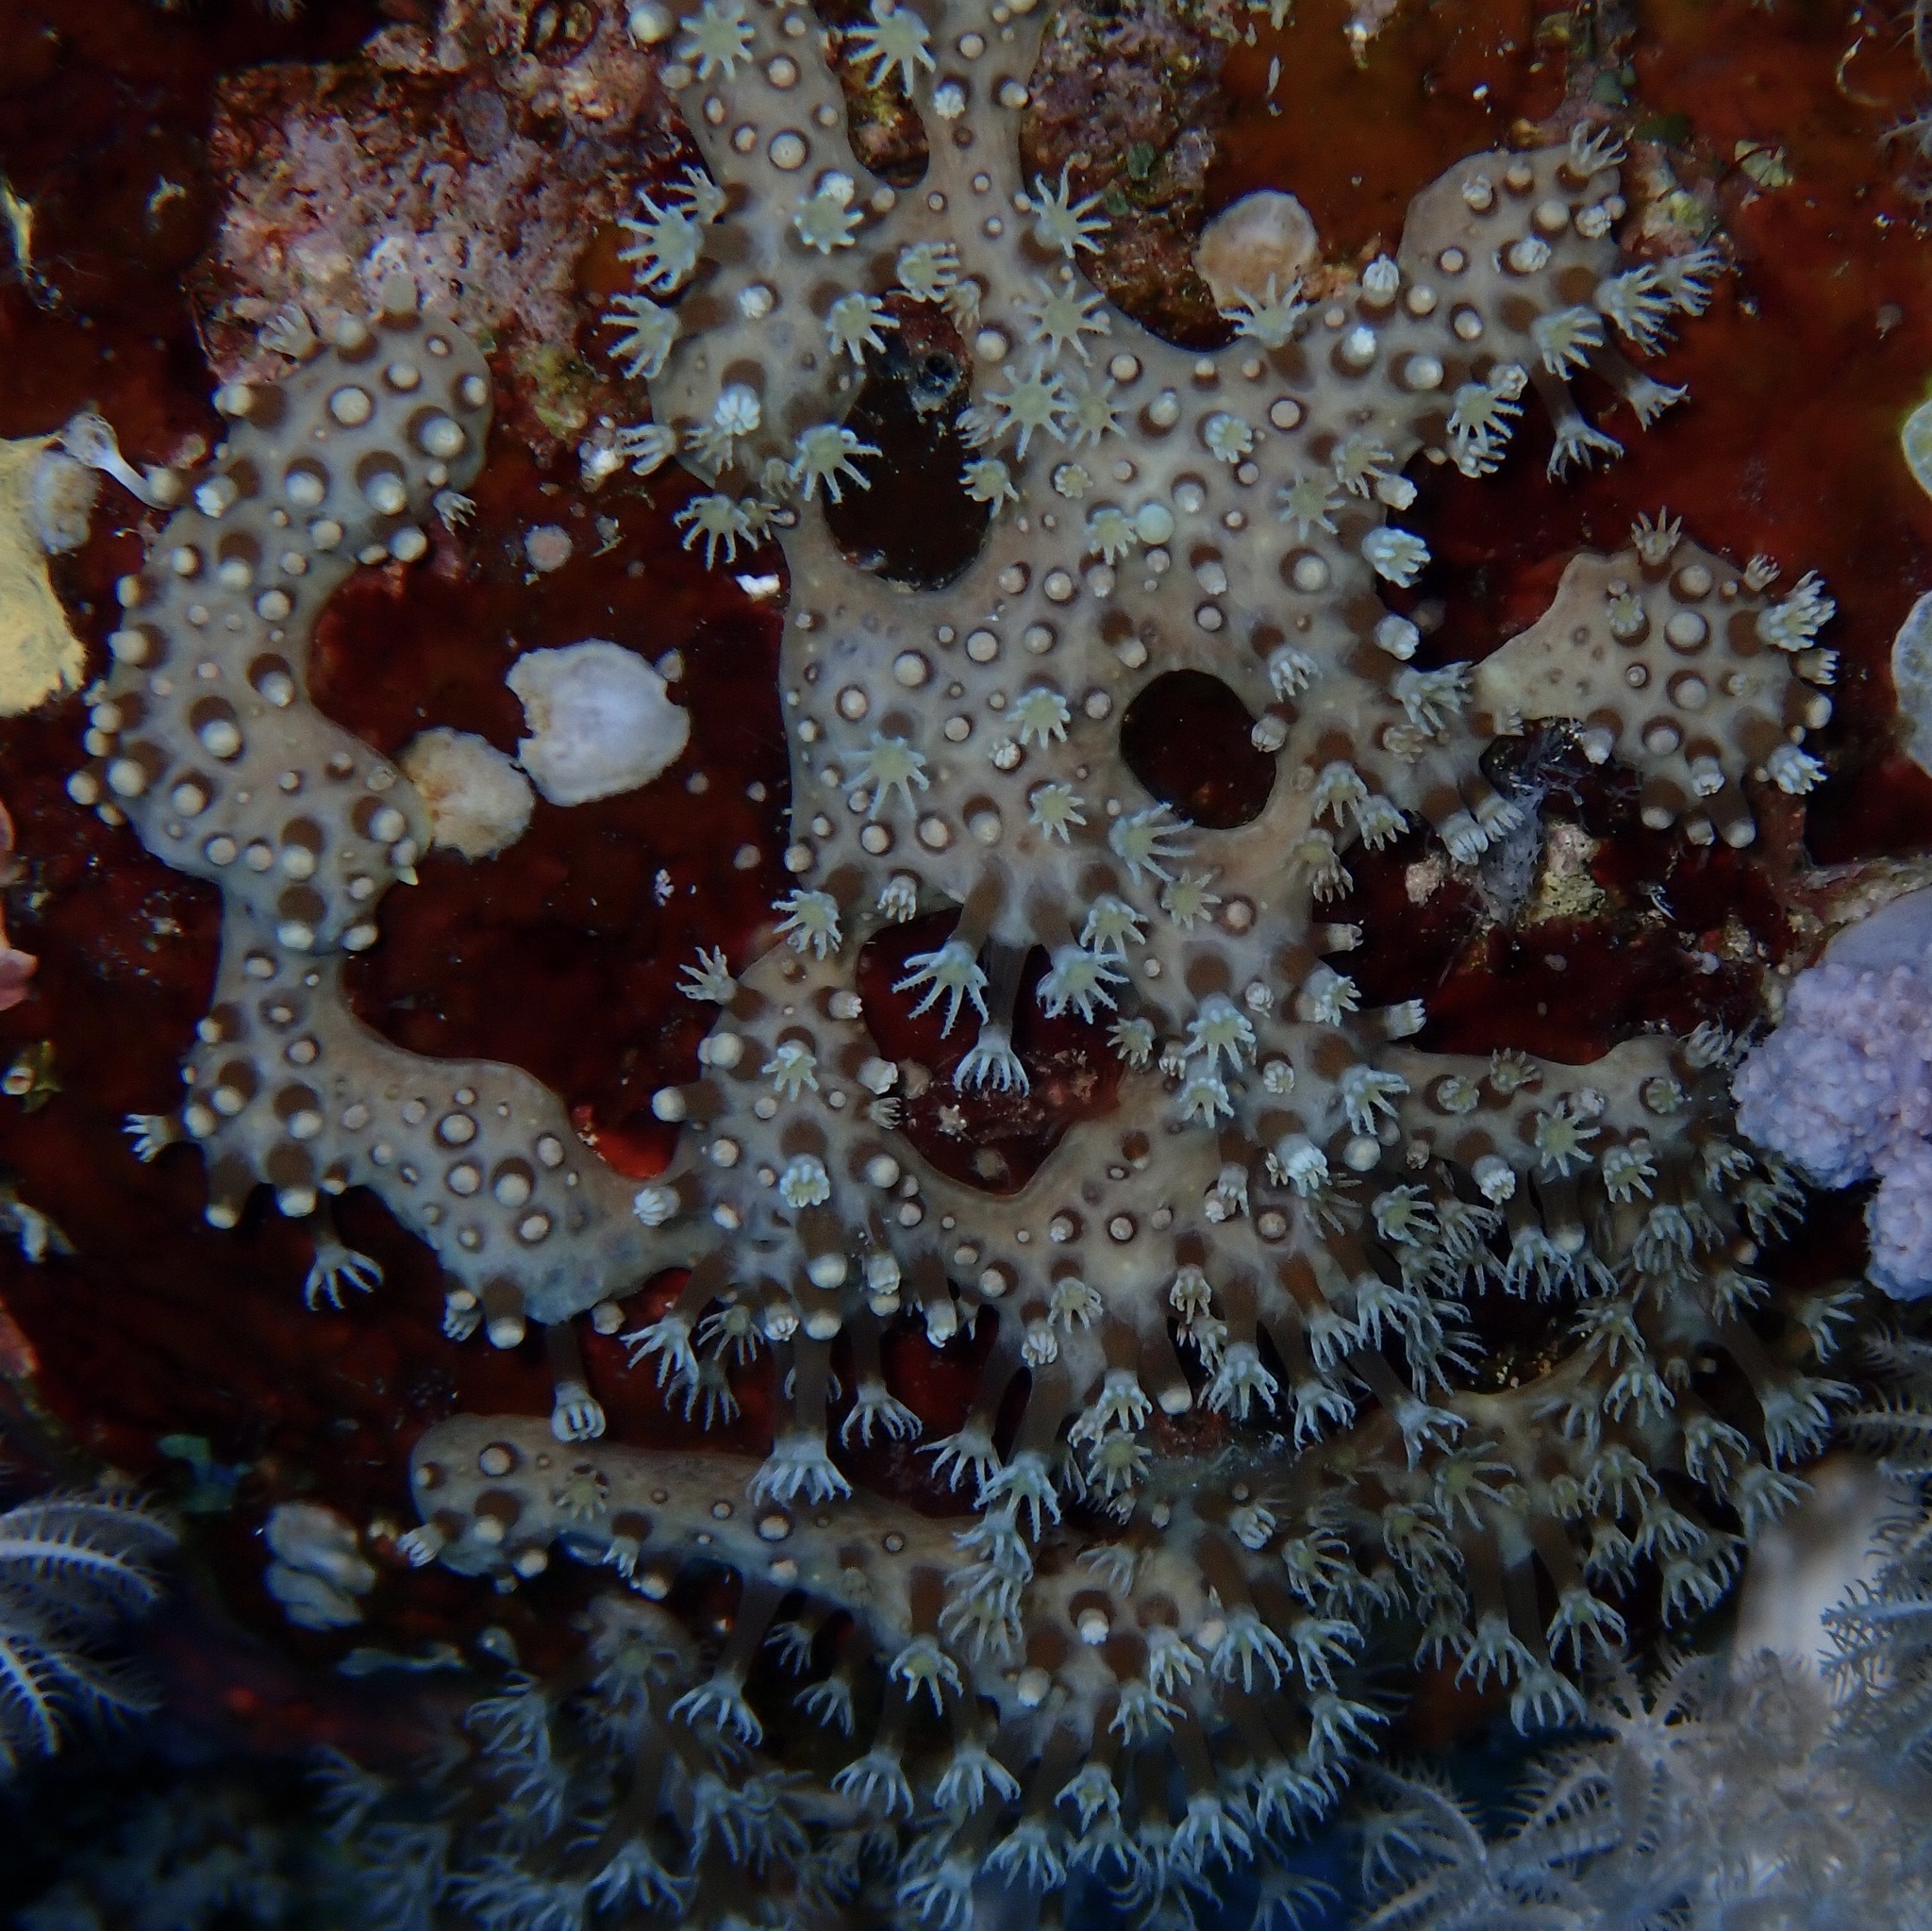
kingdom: Animalia
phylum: Cnidaria
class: Anthozoa
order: Malacalcyonacea
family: Lemnaliadae
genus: Rhytisma
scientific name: Rhytisma fulvum
